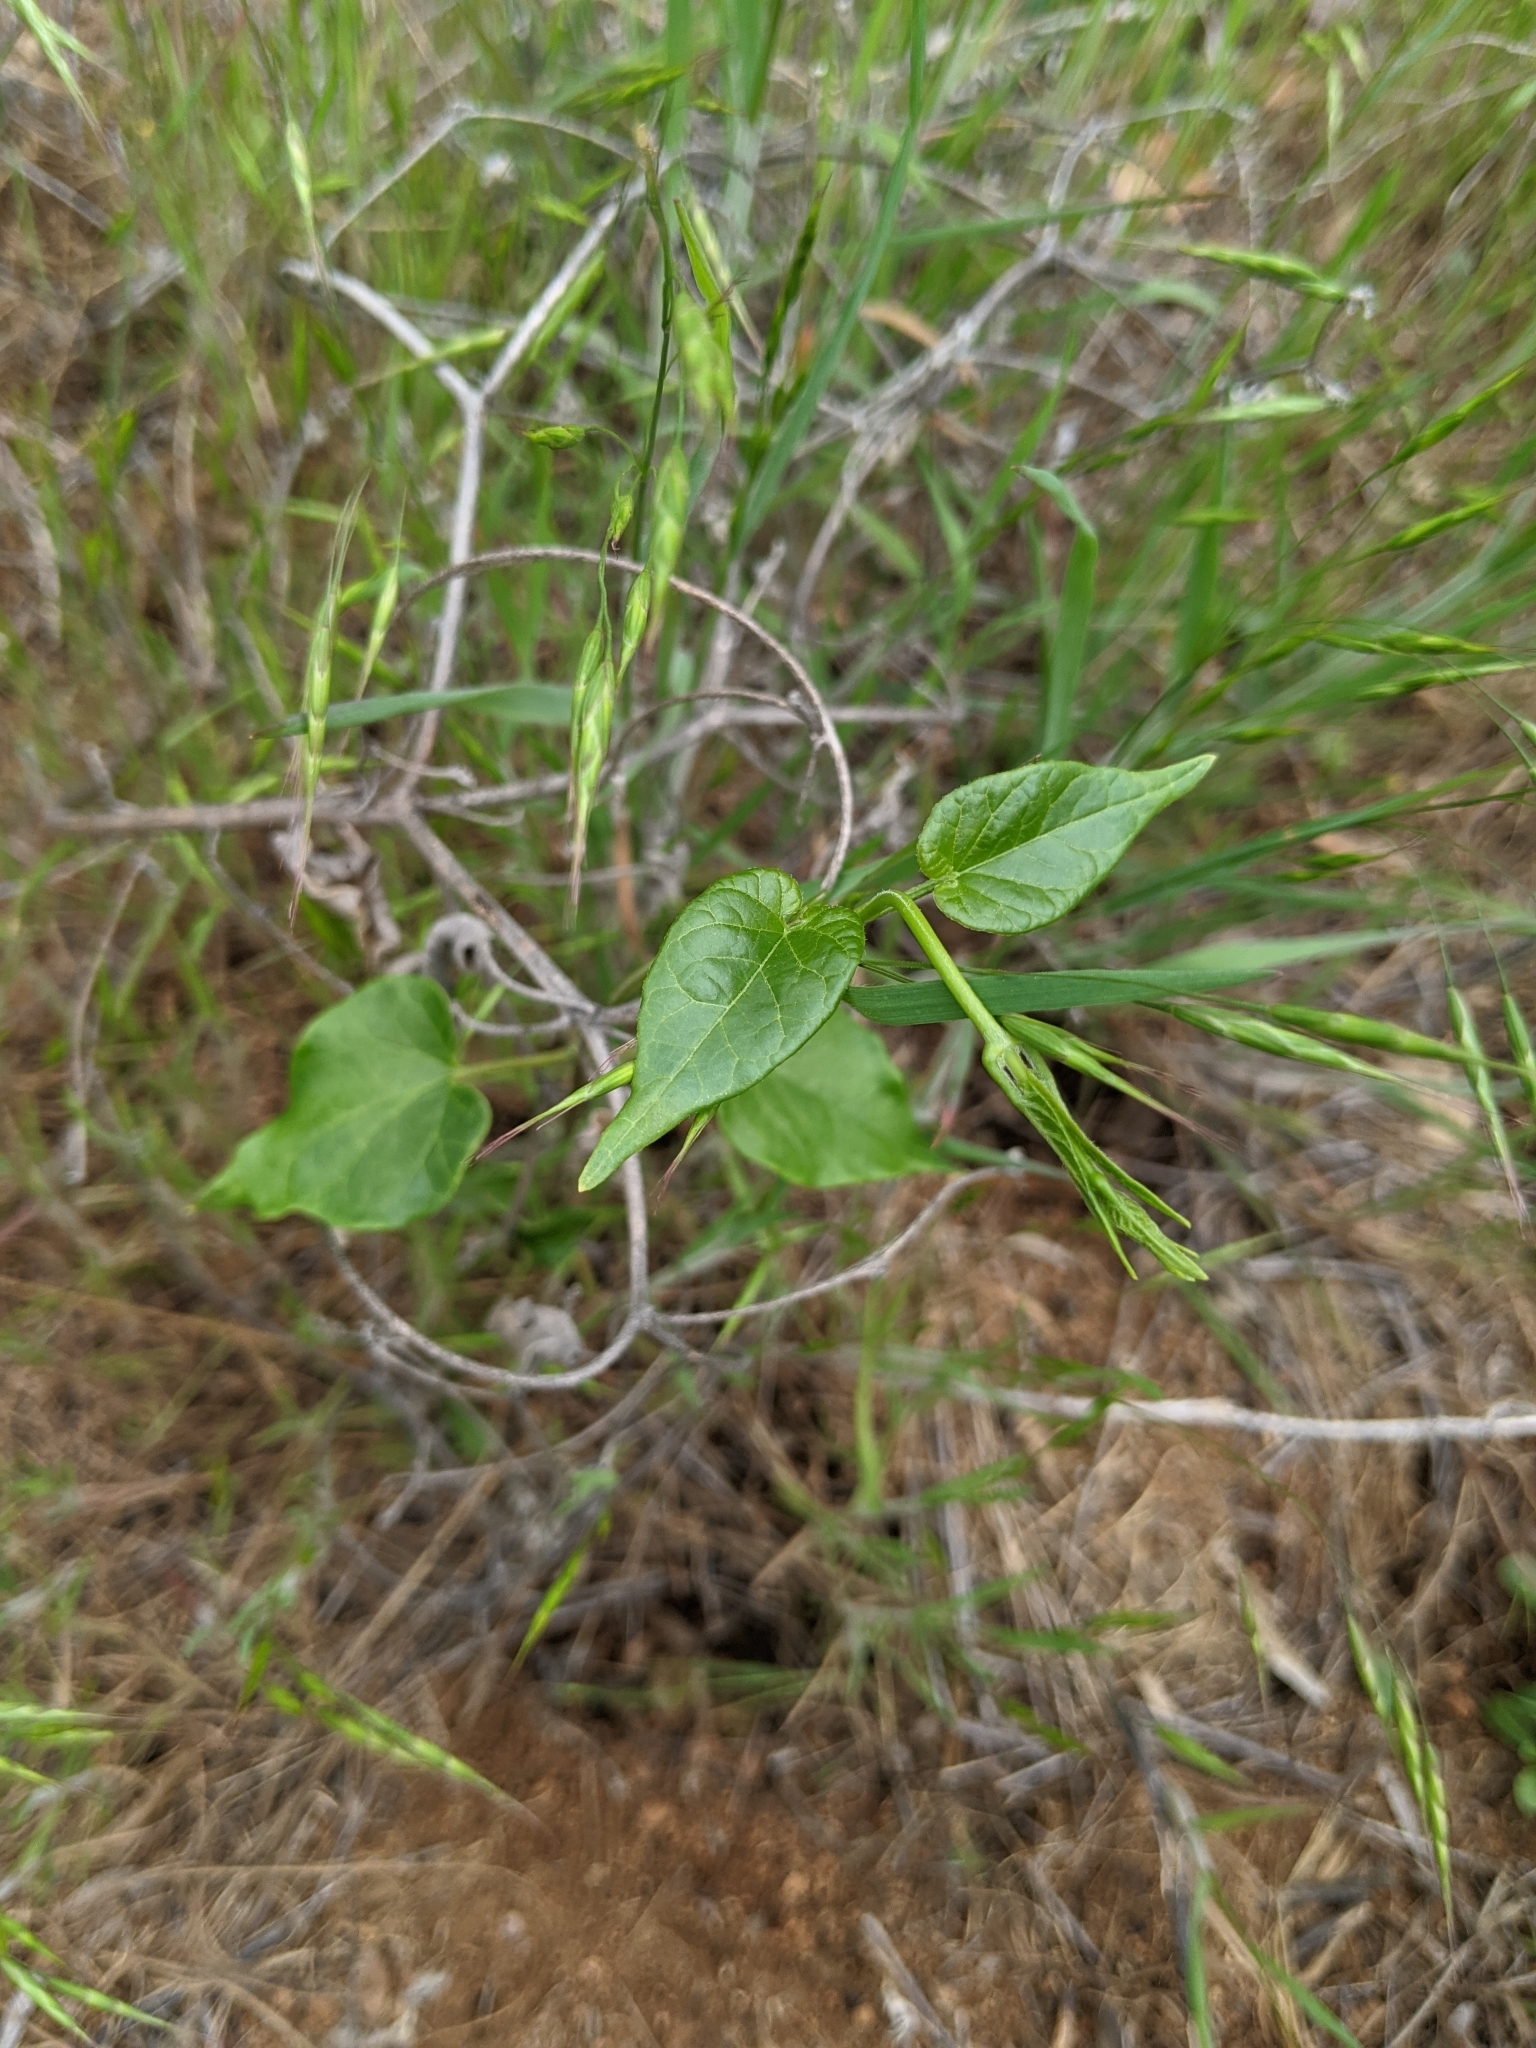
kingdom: Plantae
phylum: Tracheophyta
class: Magnoliopsida
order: Gentianales
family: Apocynaceae
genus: Cynanchum
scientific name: Cynanchum racemosum
